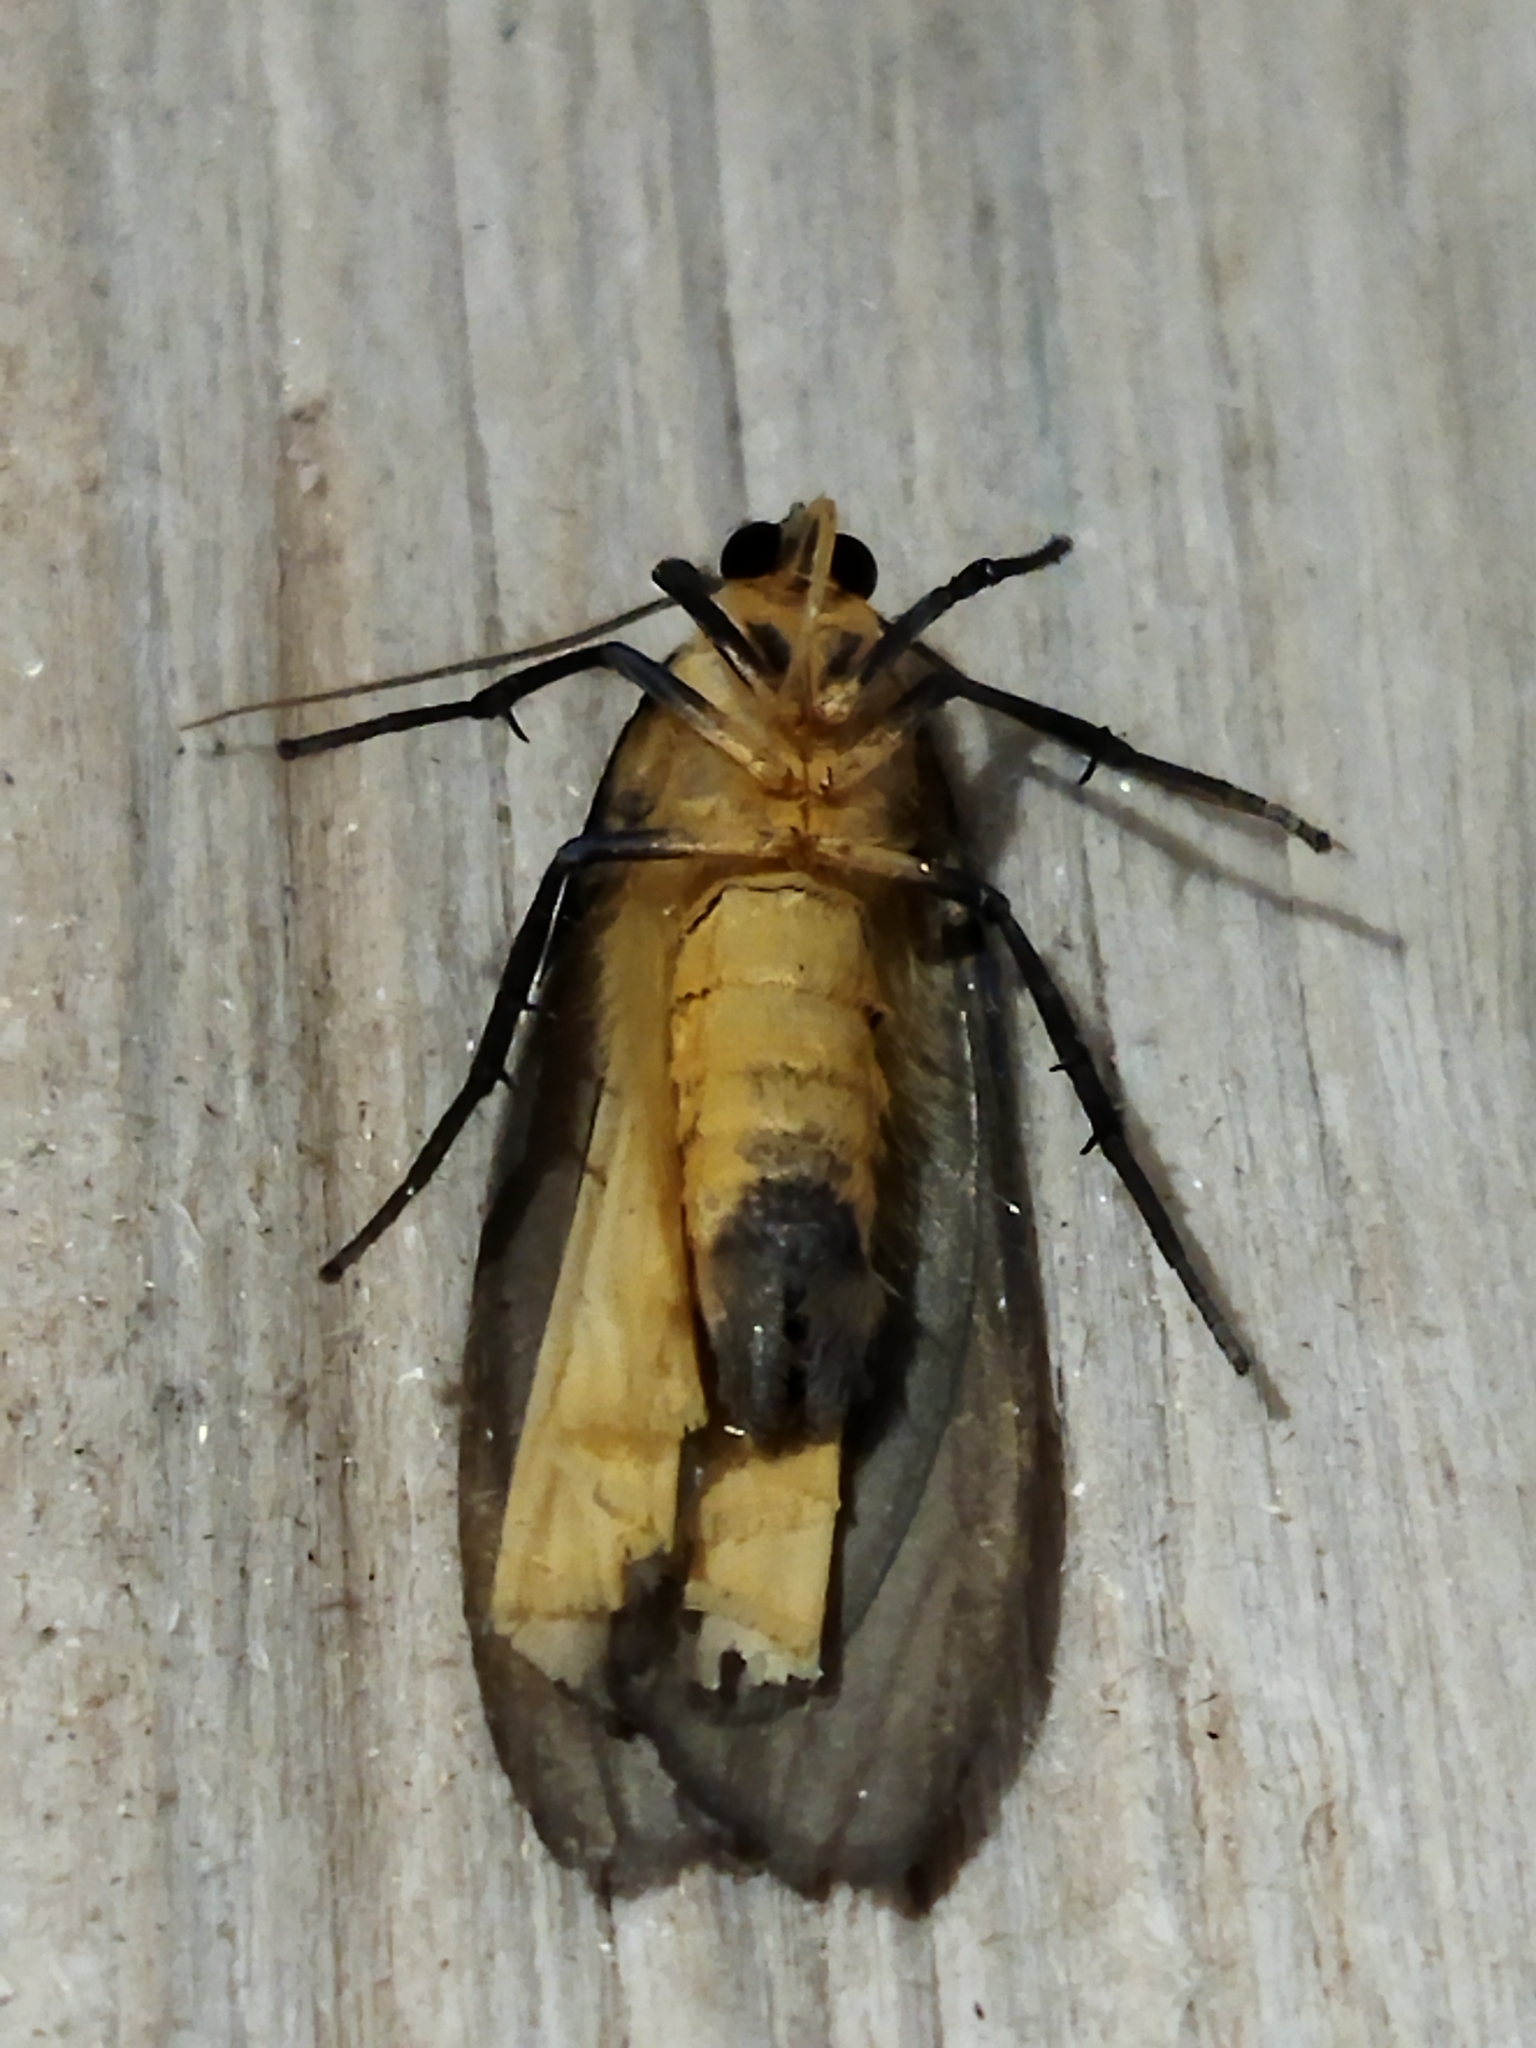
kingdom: Animalia
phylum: Arthropoda
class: Insecta
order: Lepidoptera
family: Erebidae
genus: Lithosia
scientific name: Lithosia quadra
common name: Four-spotted footman
